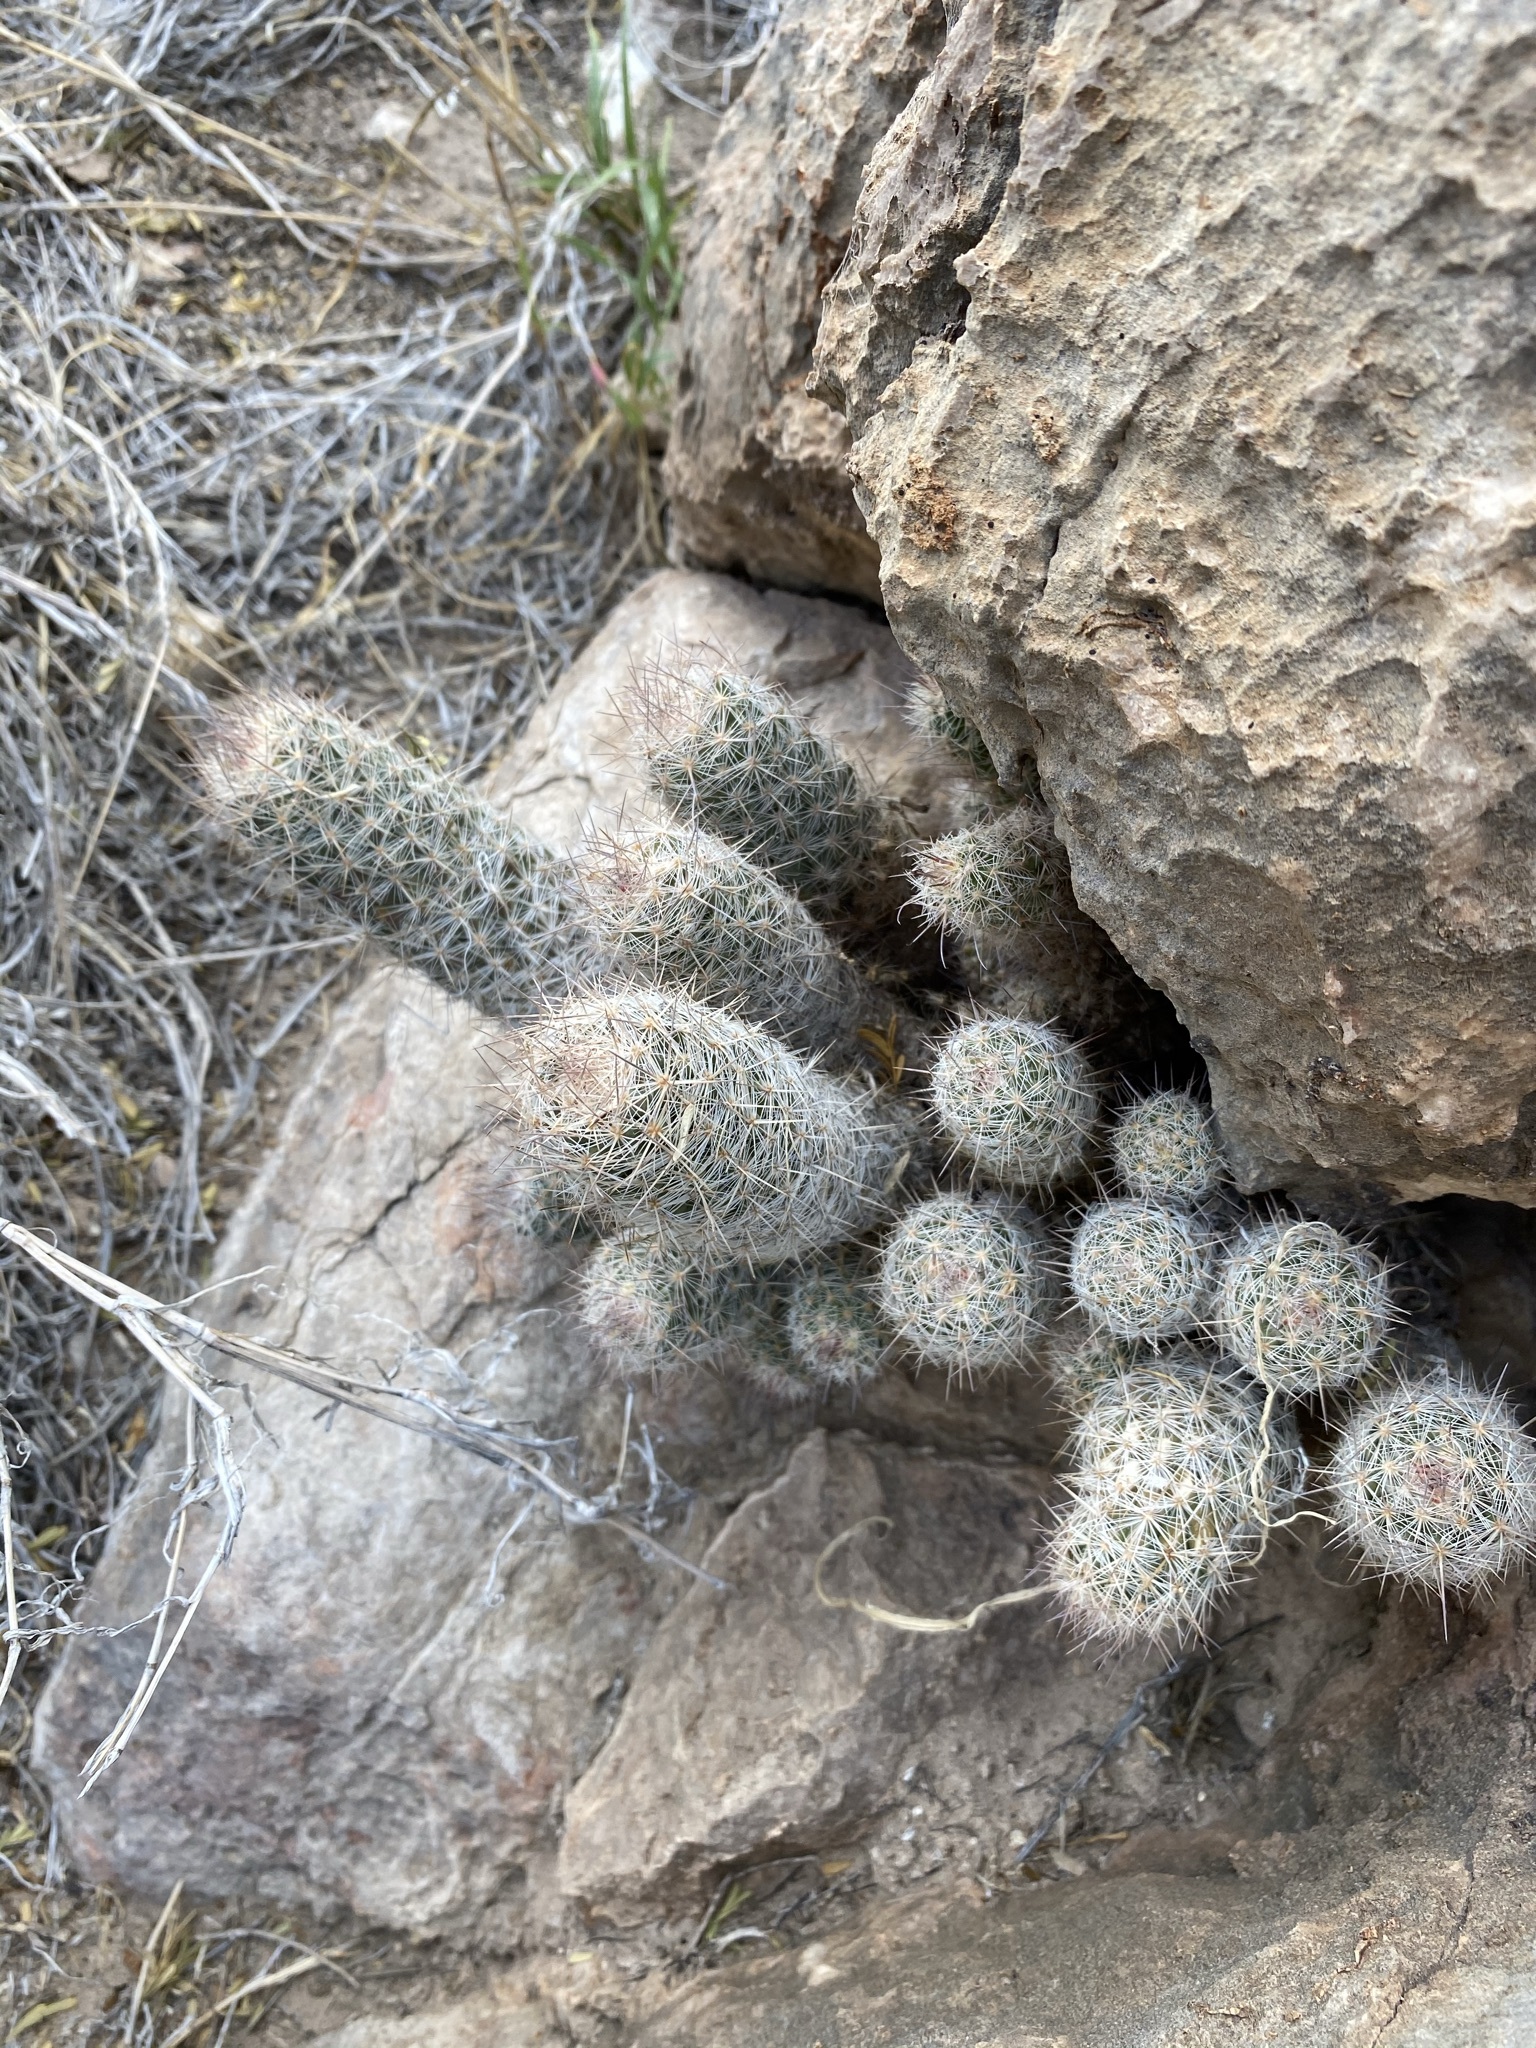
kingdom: Plantae
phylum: Tracheophyta
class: Magnoliopsida
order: Caryophyllales
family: Cactaceae
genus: Pelecyphora
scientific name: Pelecyphora tuberculosa
